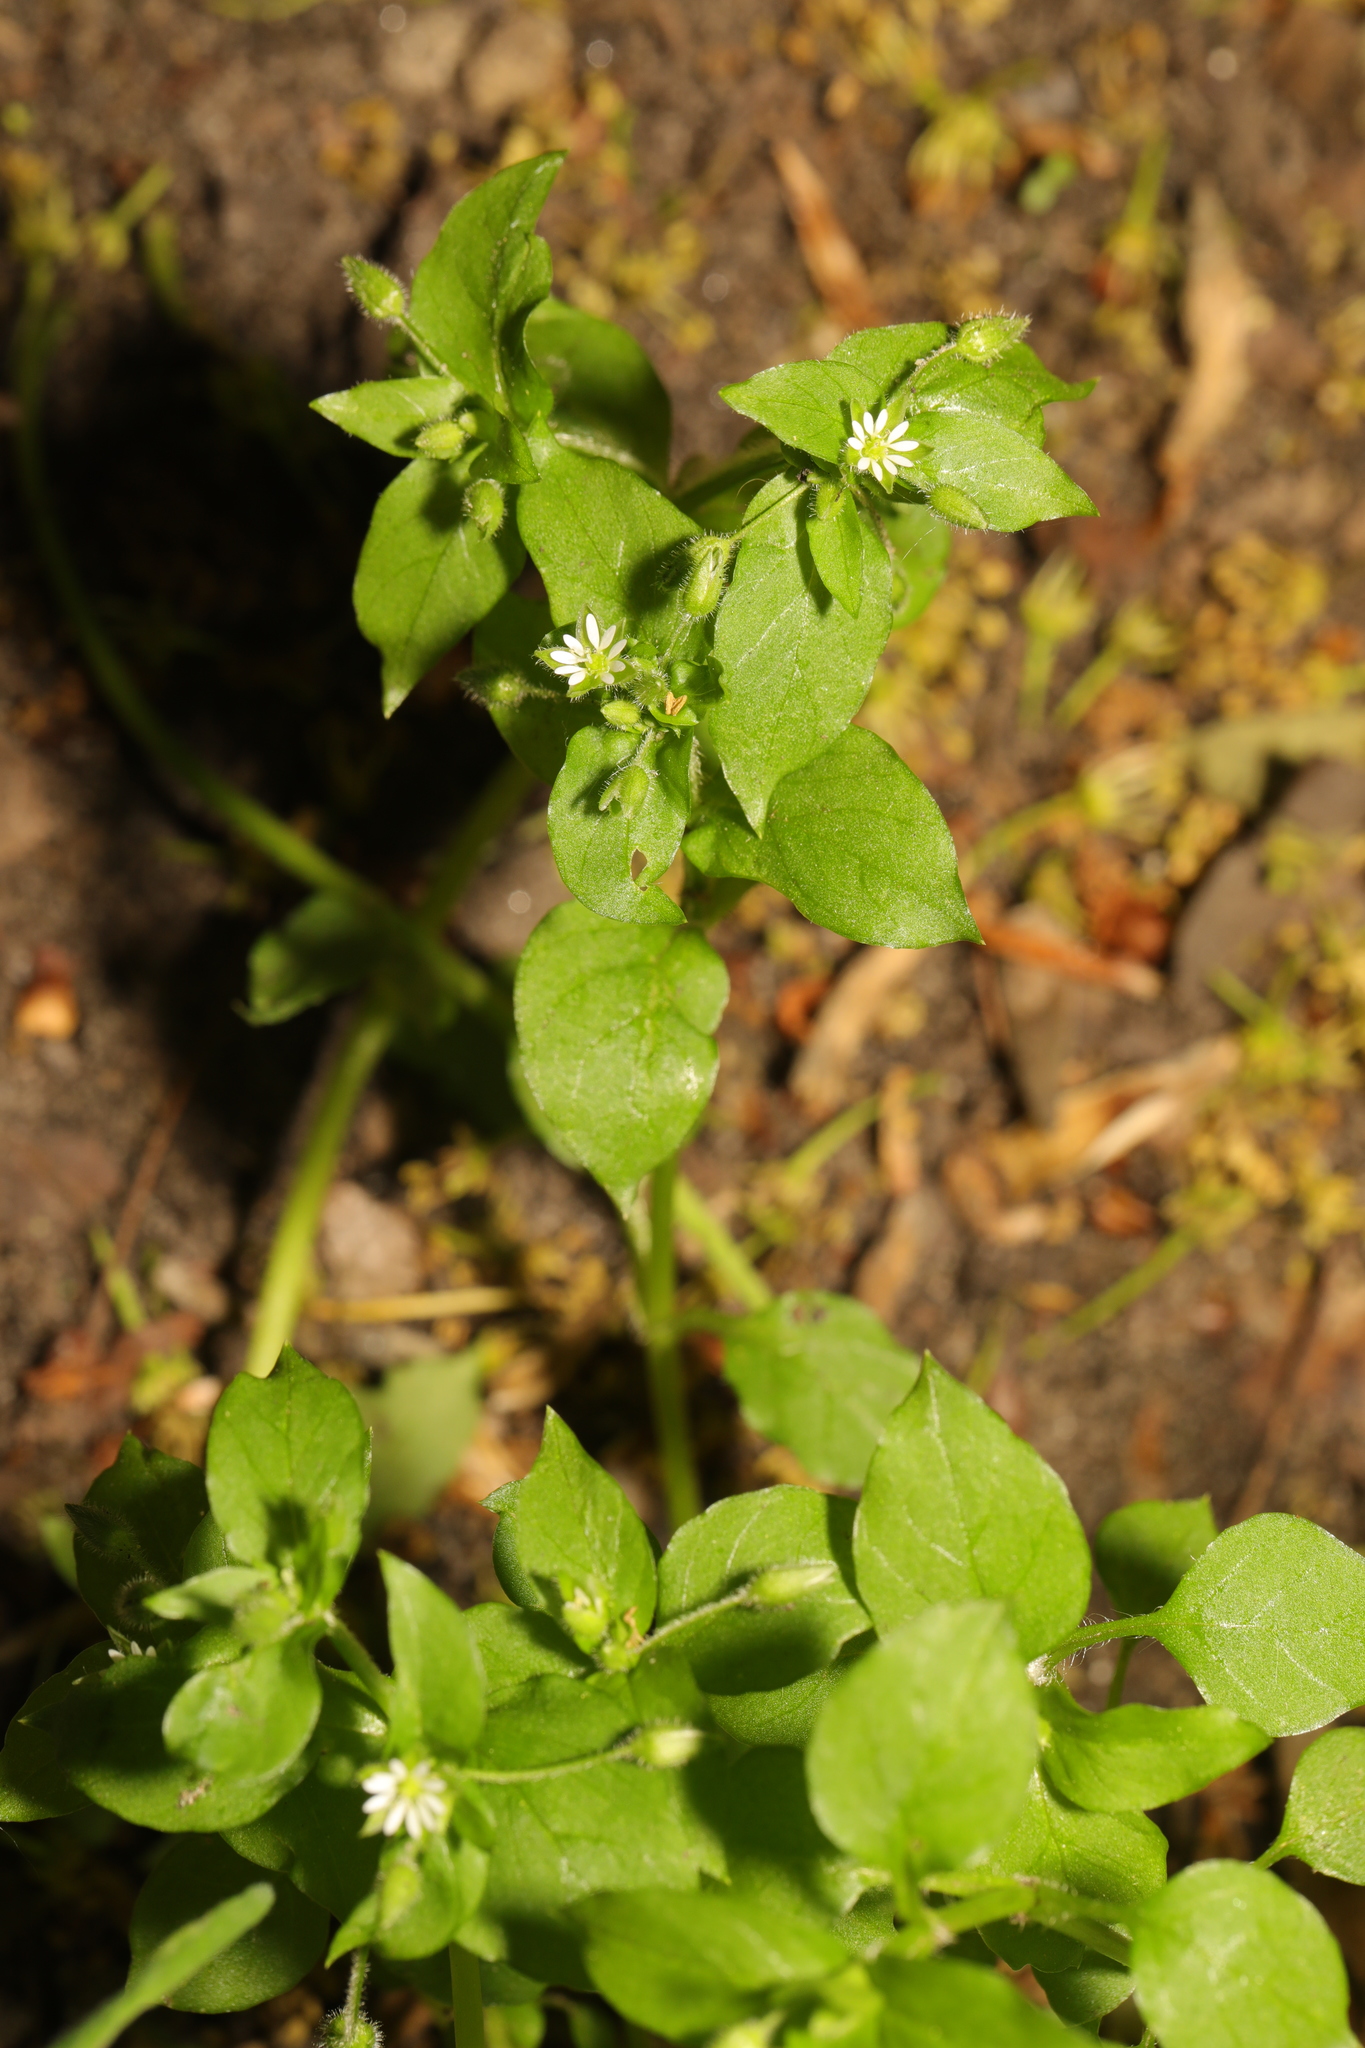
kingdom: Plantae
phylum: Tracheophyta
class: Magnoliopsida
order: Caryophyllales
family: Caryophyllaceae
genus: Stellaria
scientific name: Stellaria media
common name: Common chickweed
